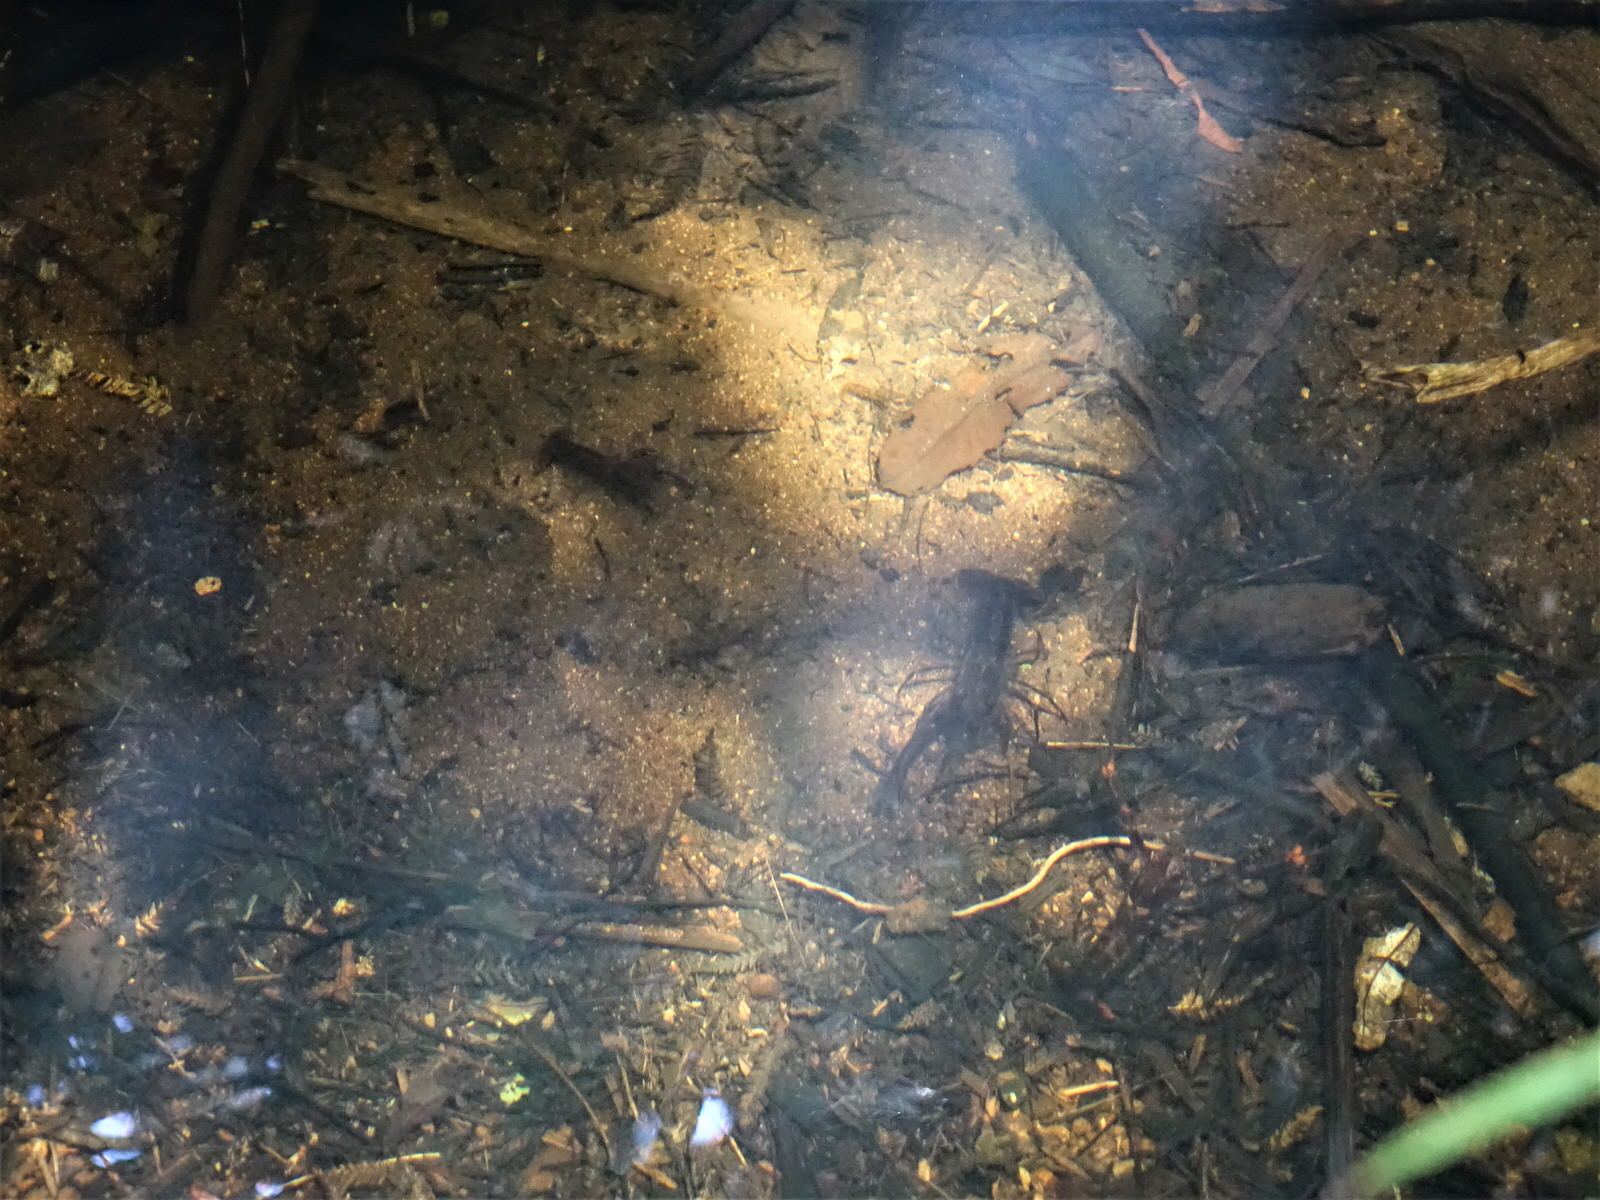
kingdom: Animalia
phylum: Arthropoda
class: Malacostraca
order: Decapoda
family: Parastacidae
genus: Paranephrops
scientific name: Paranephrops planifrons
